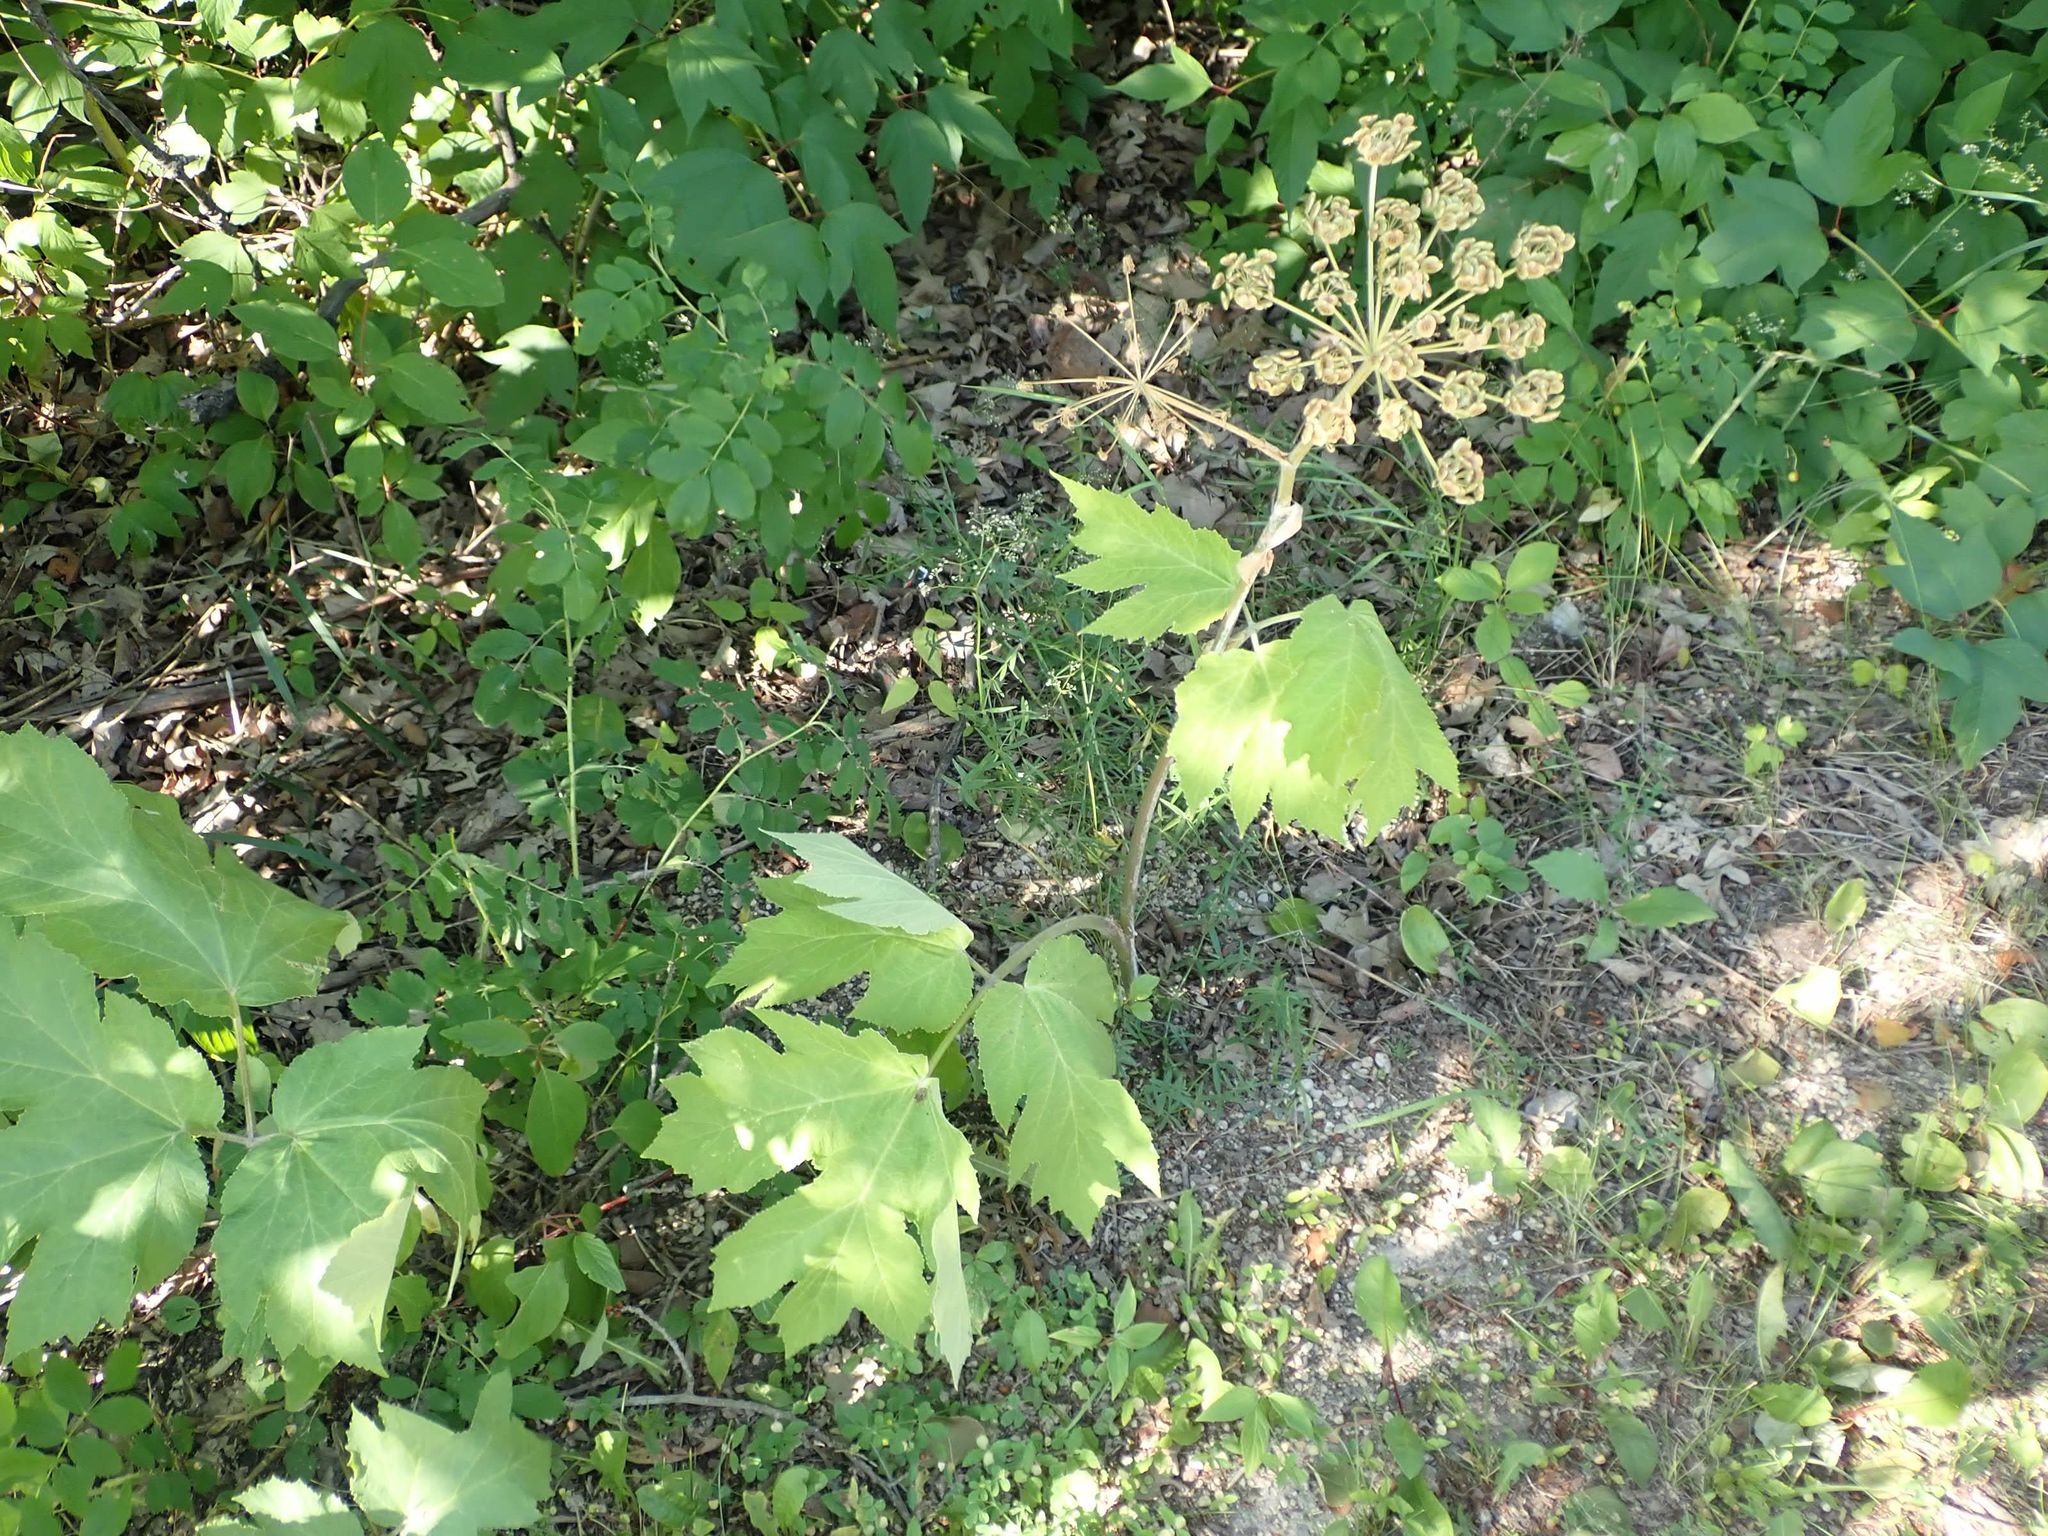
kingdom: Plantae
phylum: Tracheophyta
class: Magnoliopsida
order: Apiales
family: Apiaceae
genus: Heracleum
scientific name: Heracleum maximum
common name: American cow parsnip
